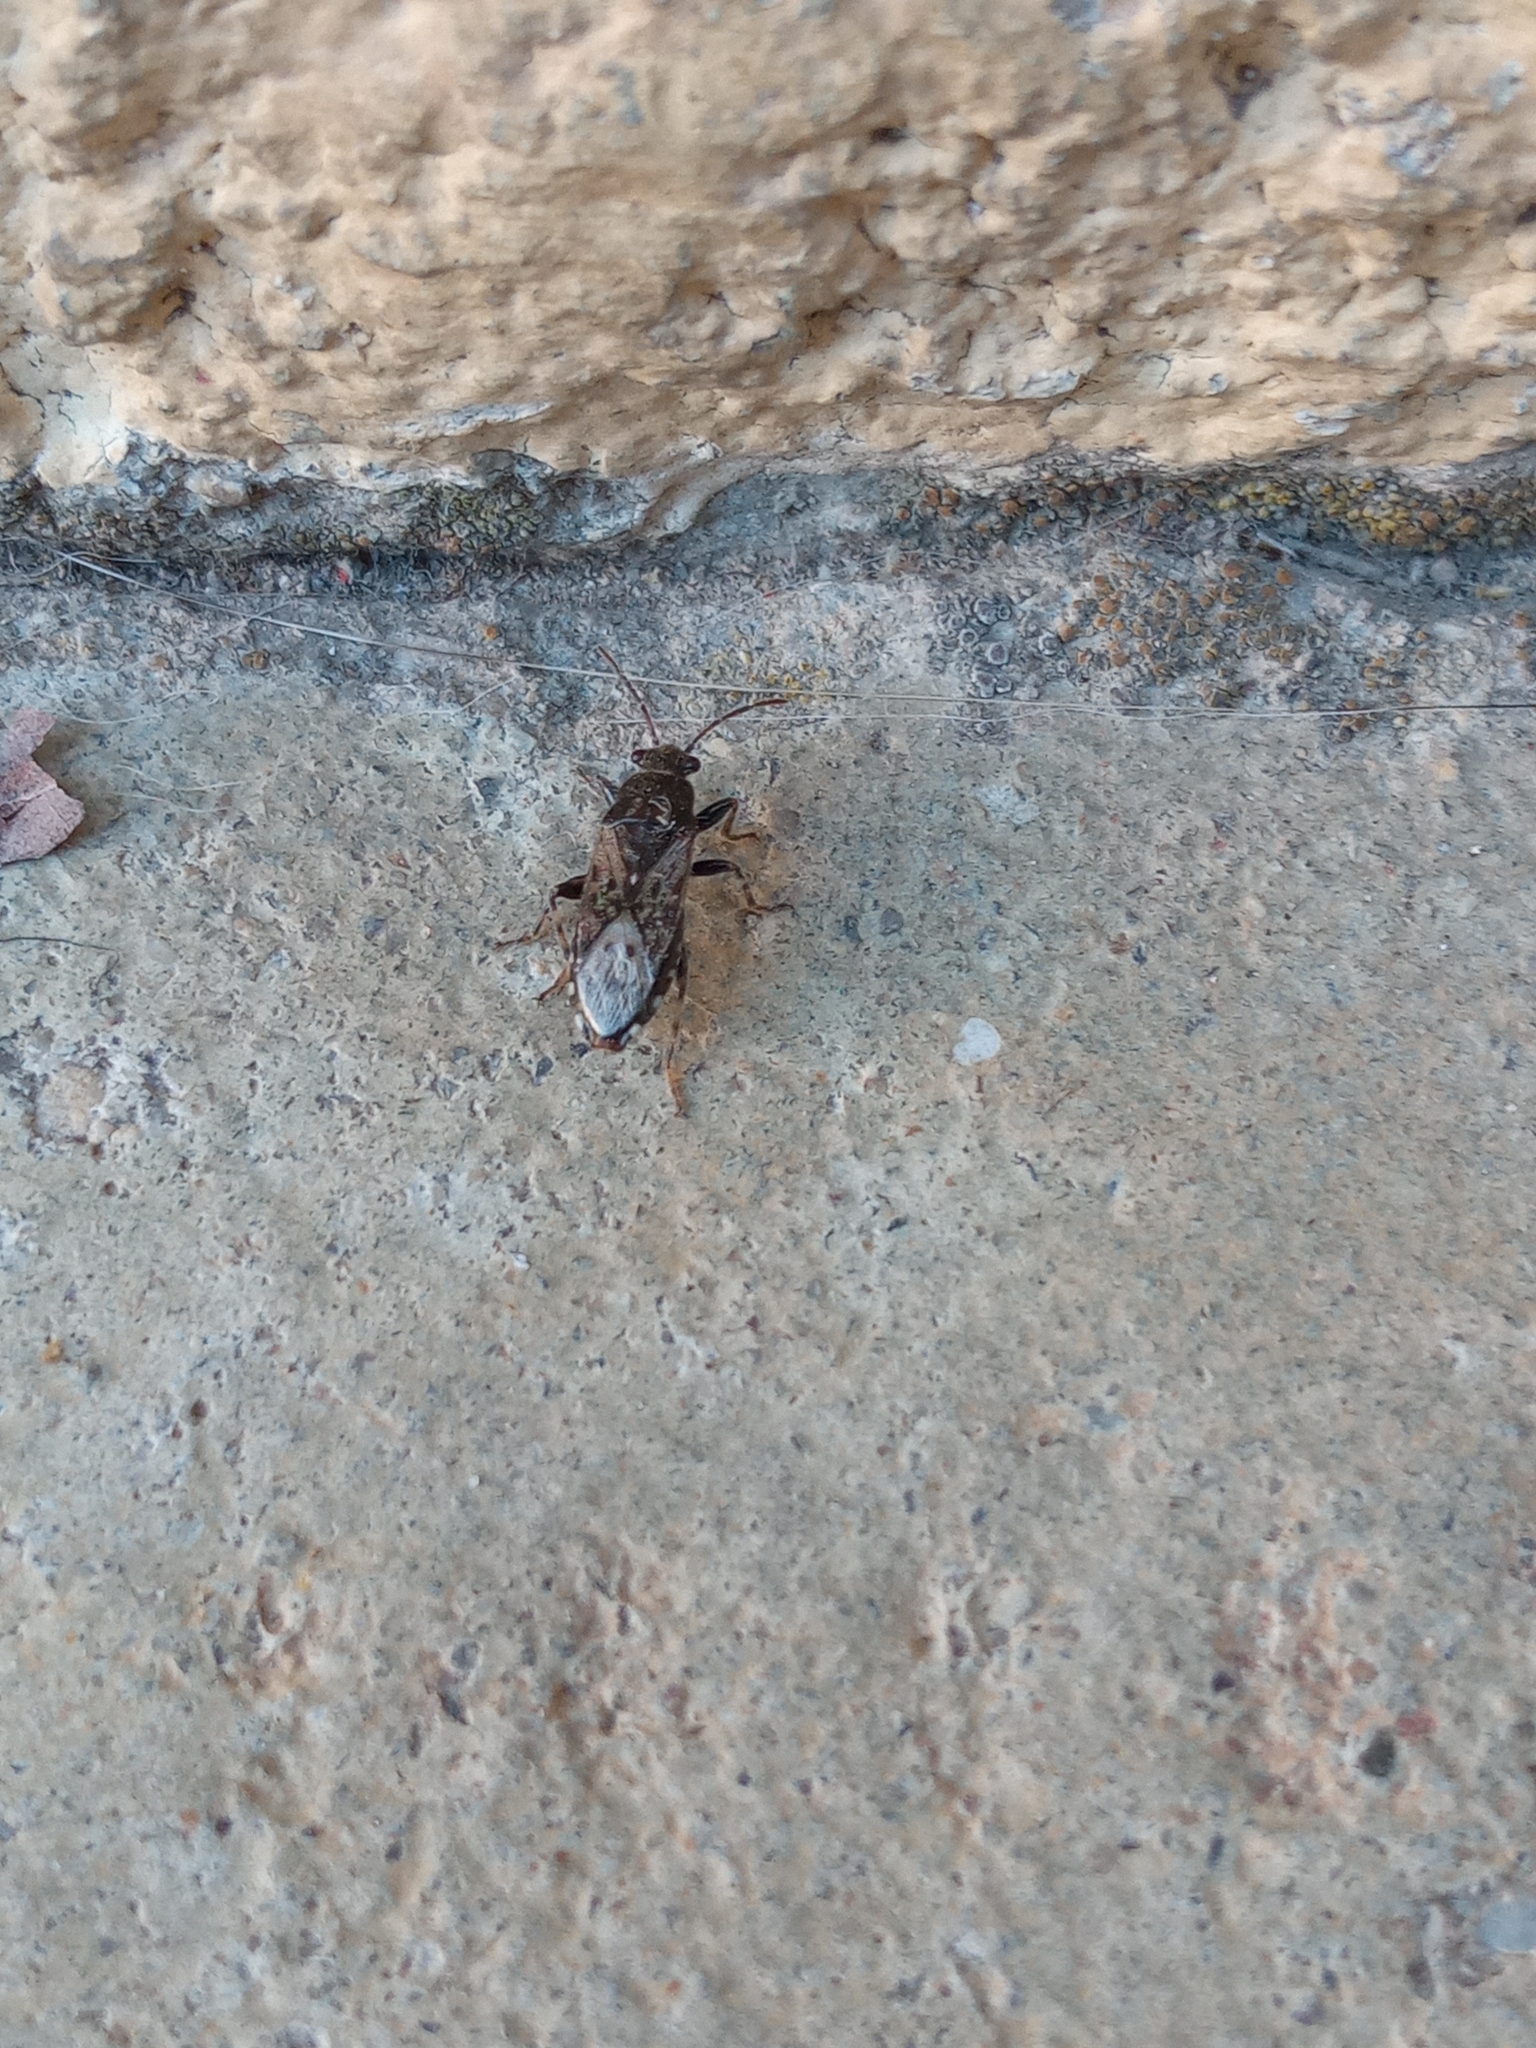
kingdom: Animalia
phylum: Arthropoda
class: Insecta
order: Hemiptera
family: Heterogastridae
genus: Heterogaster
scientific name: Heterogaster urticae
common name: Seed bug
